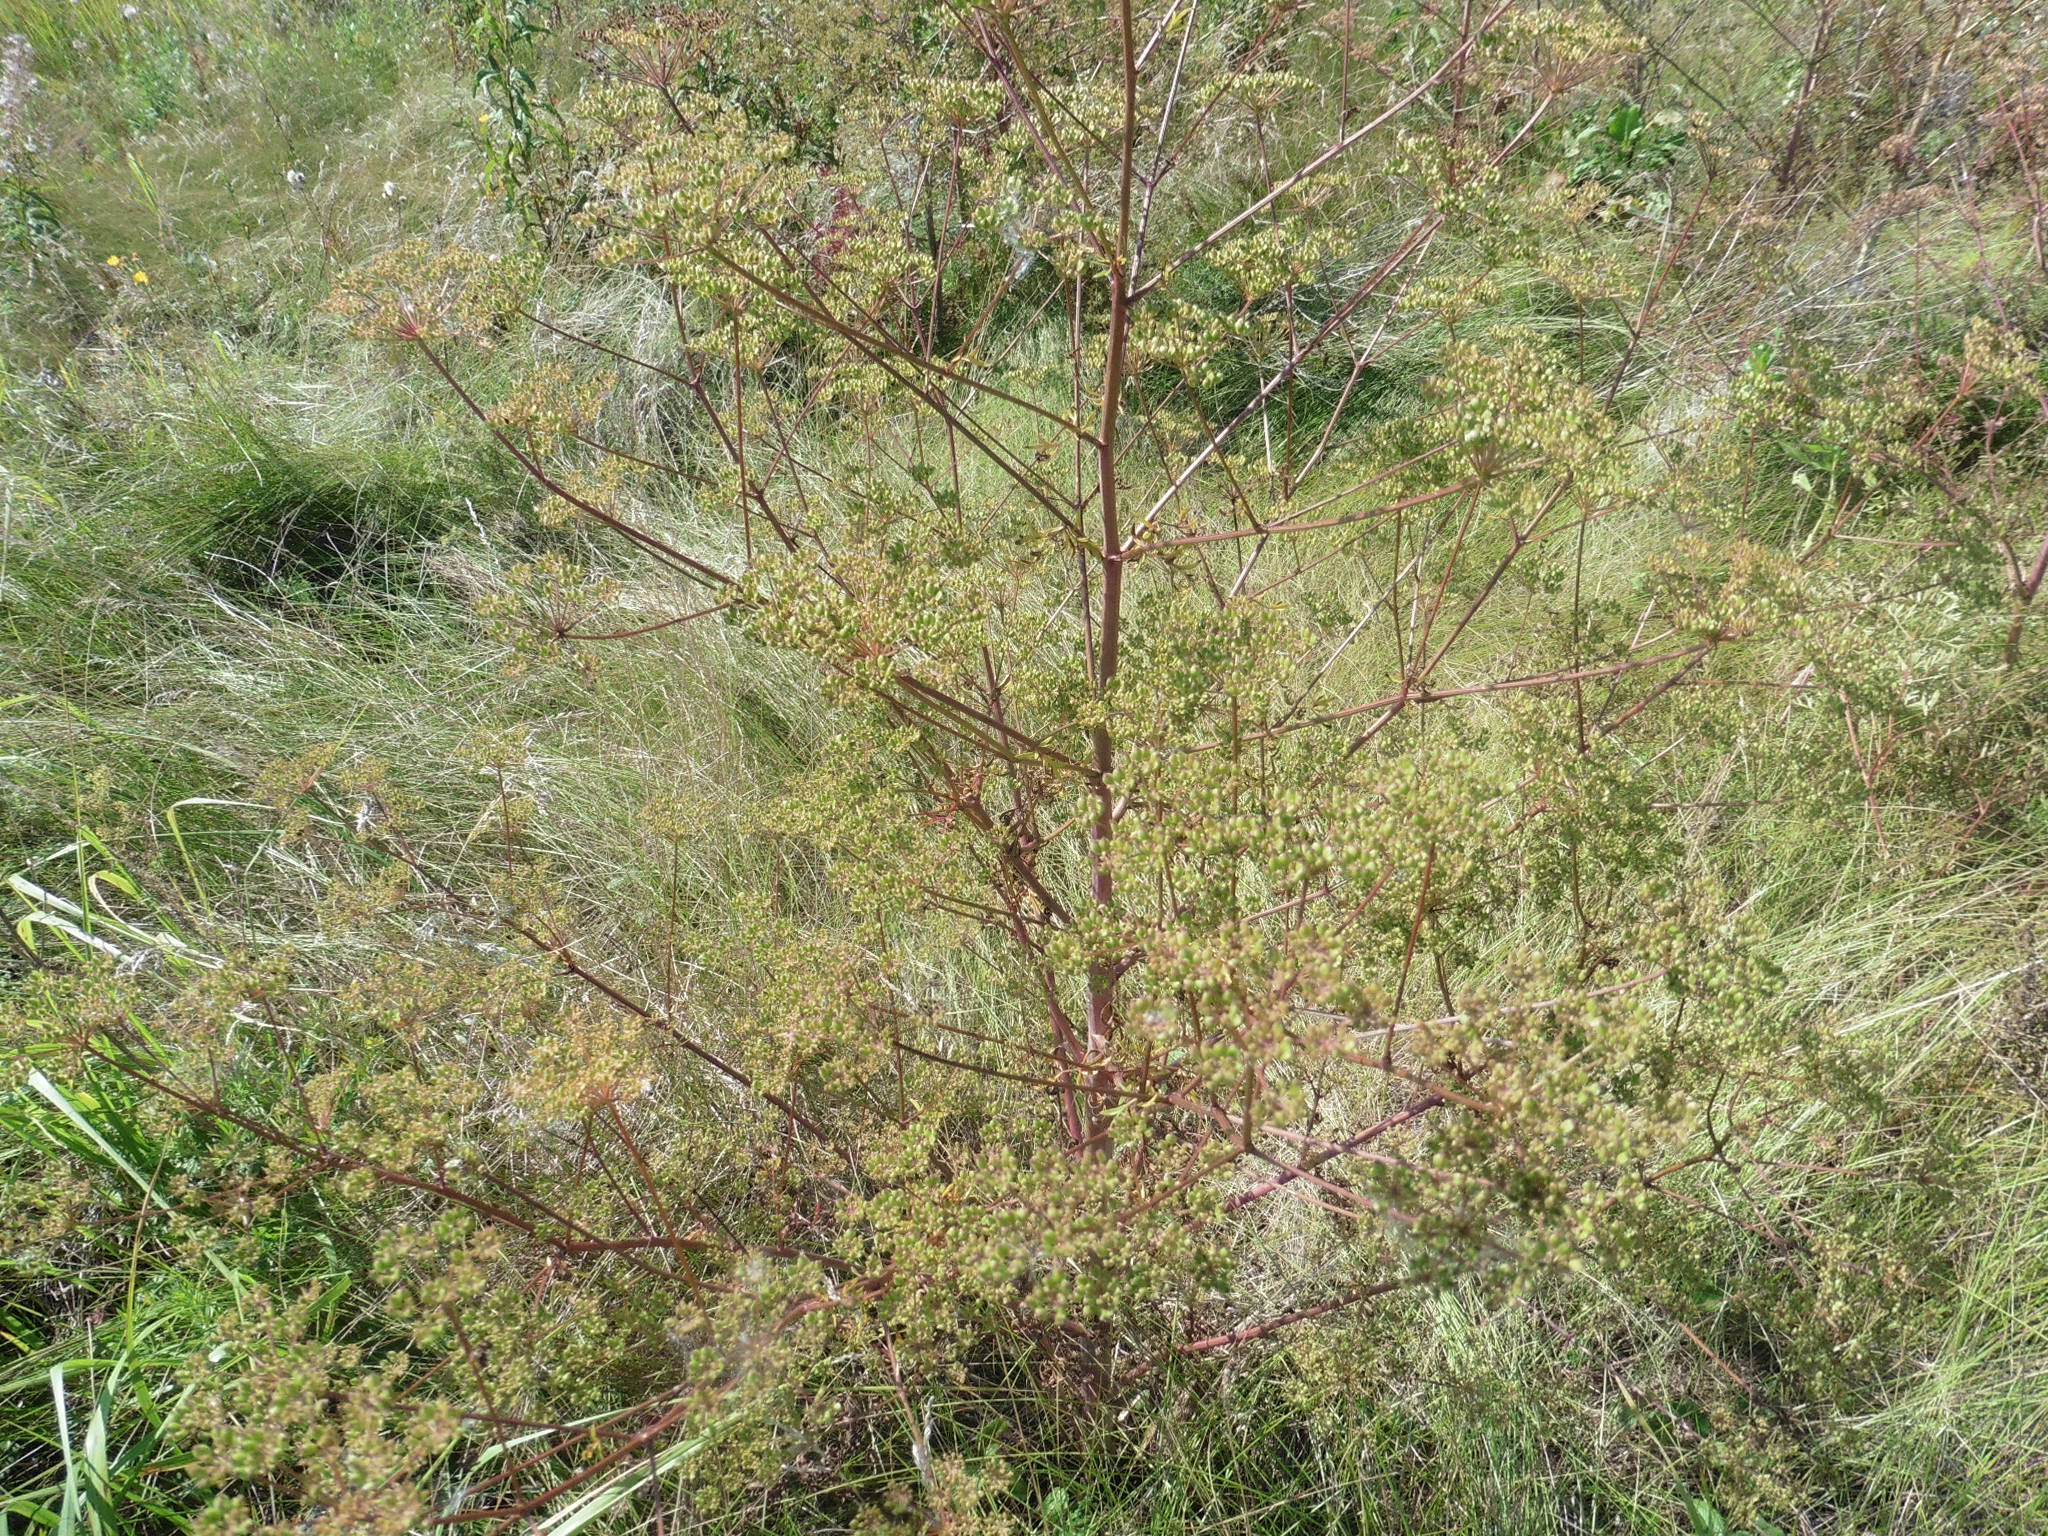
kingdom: Plantae
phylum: Tracheophyta
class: Magnoliopsida
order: Apiales
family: Apiaceae
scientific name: Apiaceae
